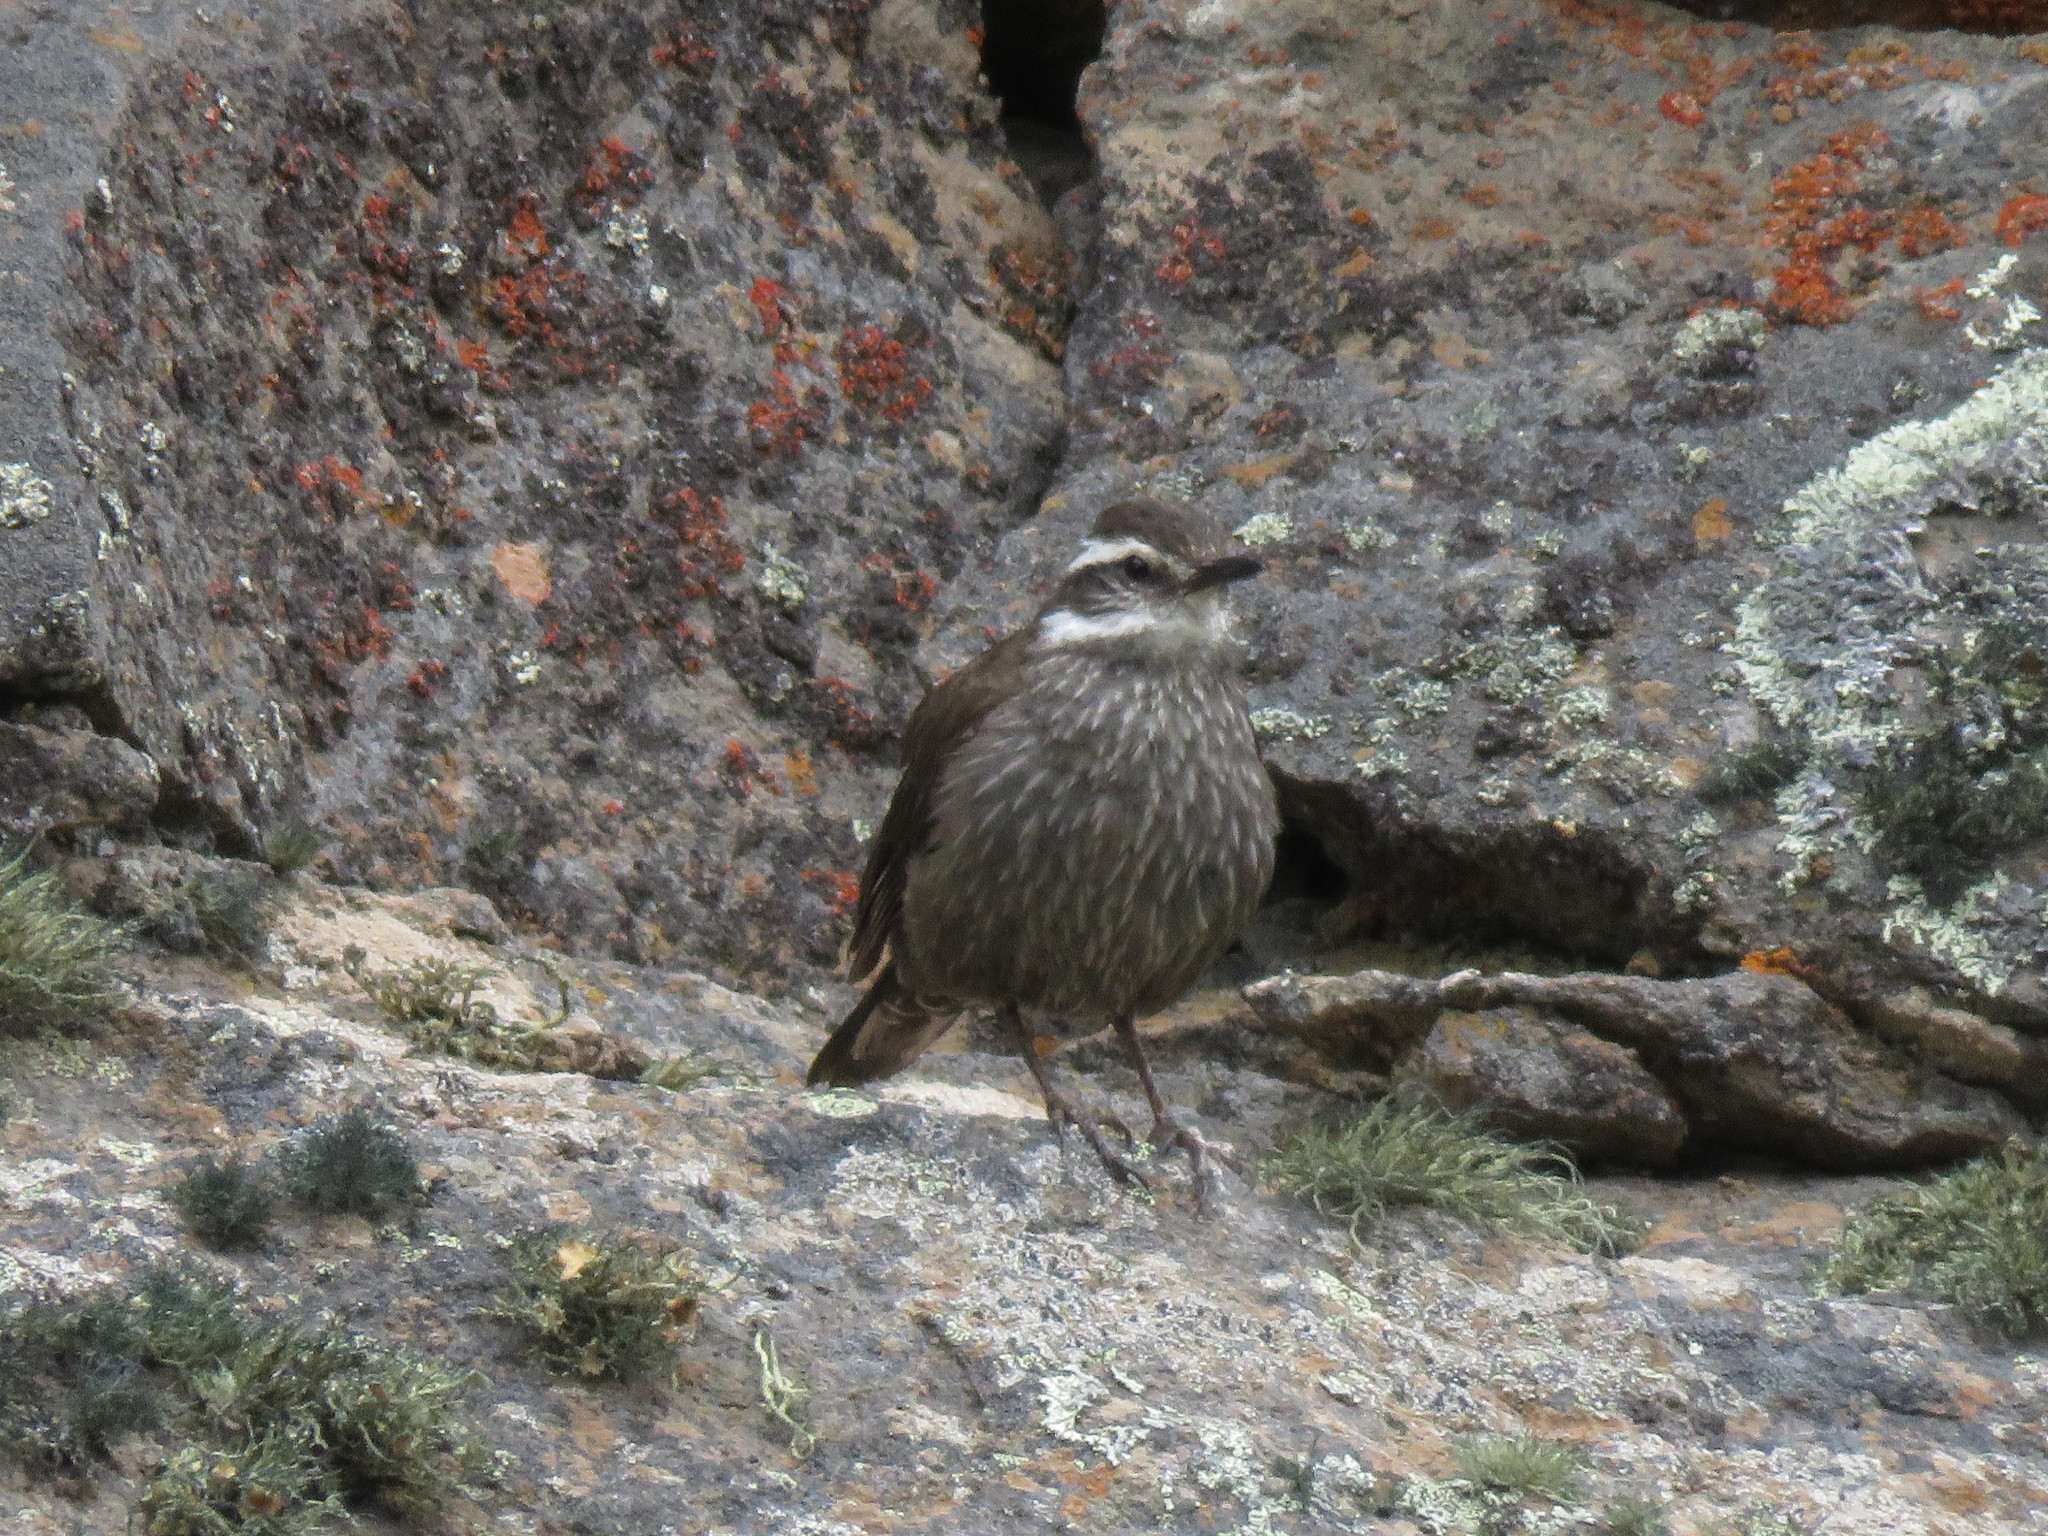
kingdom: Animalia
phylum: Chordata
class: Aves
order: Passeriformes
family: Furnariidae
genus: Cinclodes
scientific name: Cinclodes patagonicus
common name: Dark-bellied cinclodes
